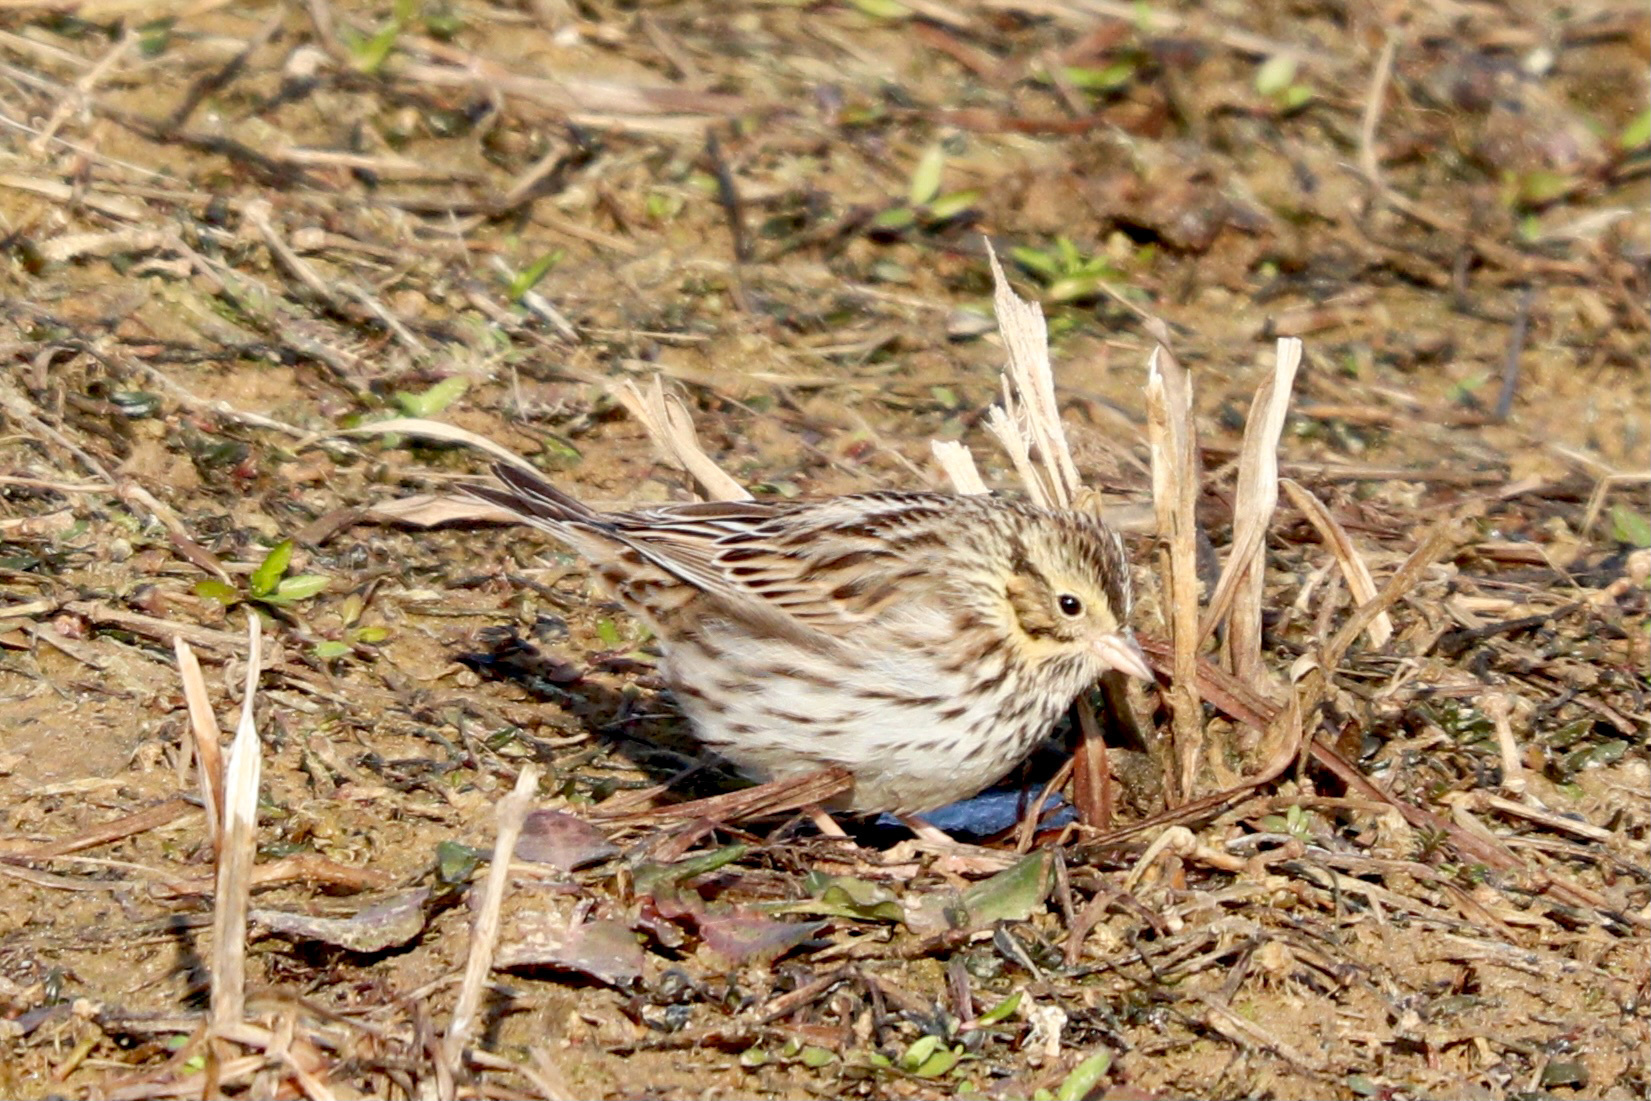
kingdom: Animalia
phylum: Chordata
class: Aves
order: Passeriformes
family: Passerellidae
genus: Passerculus
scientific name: Passerculus sandwichensis
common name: Savannah sparrow
